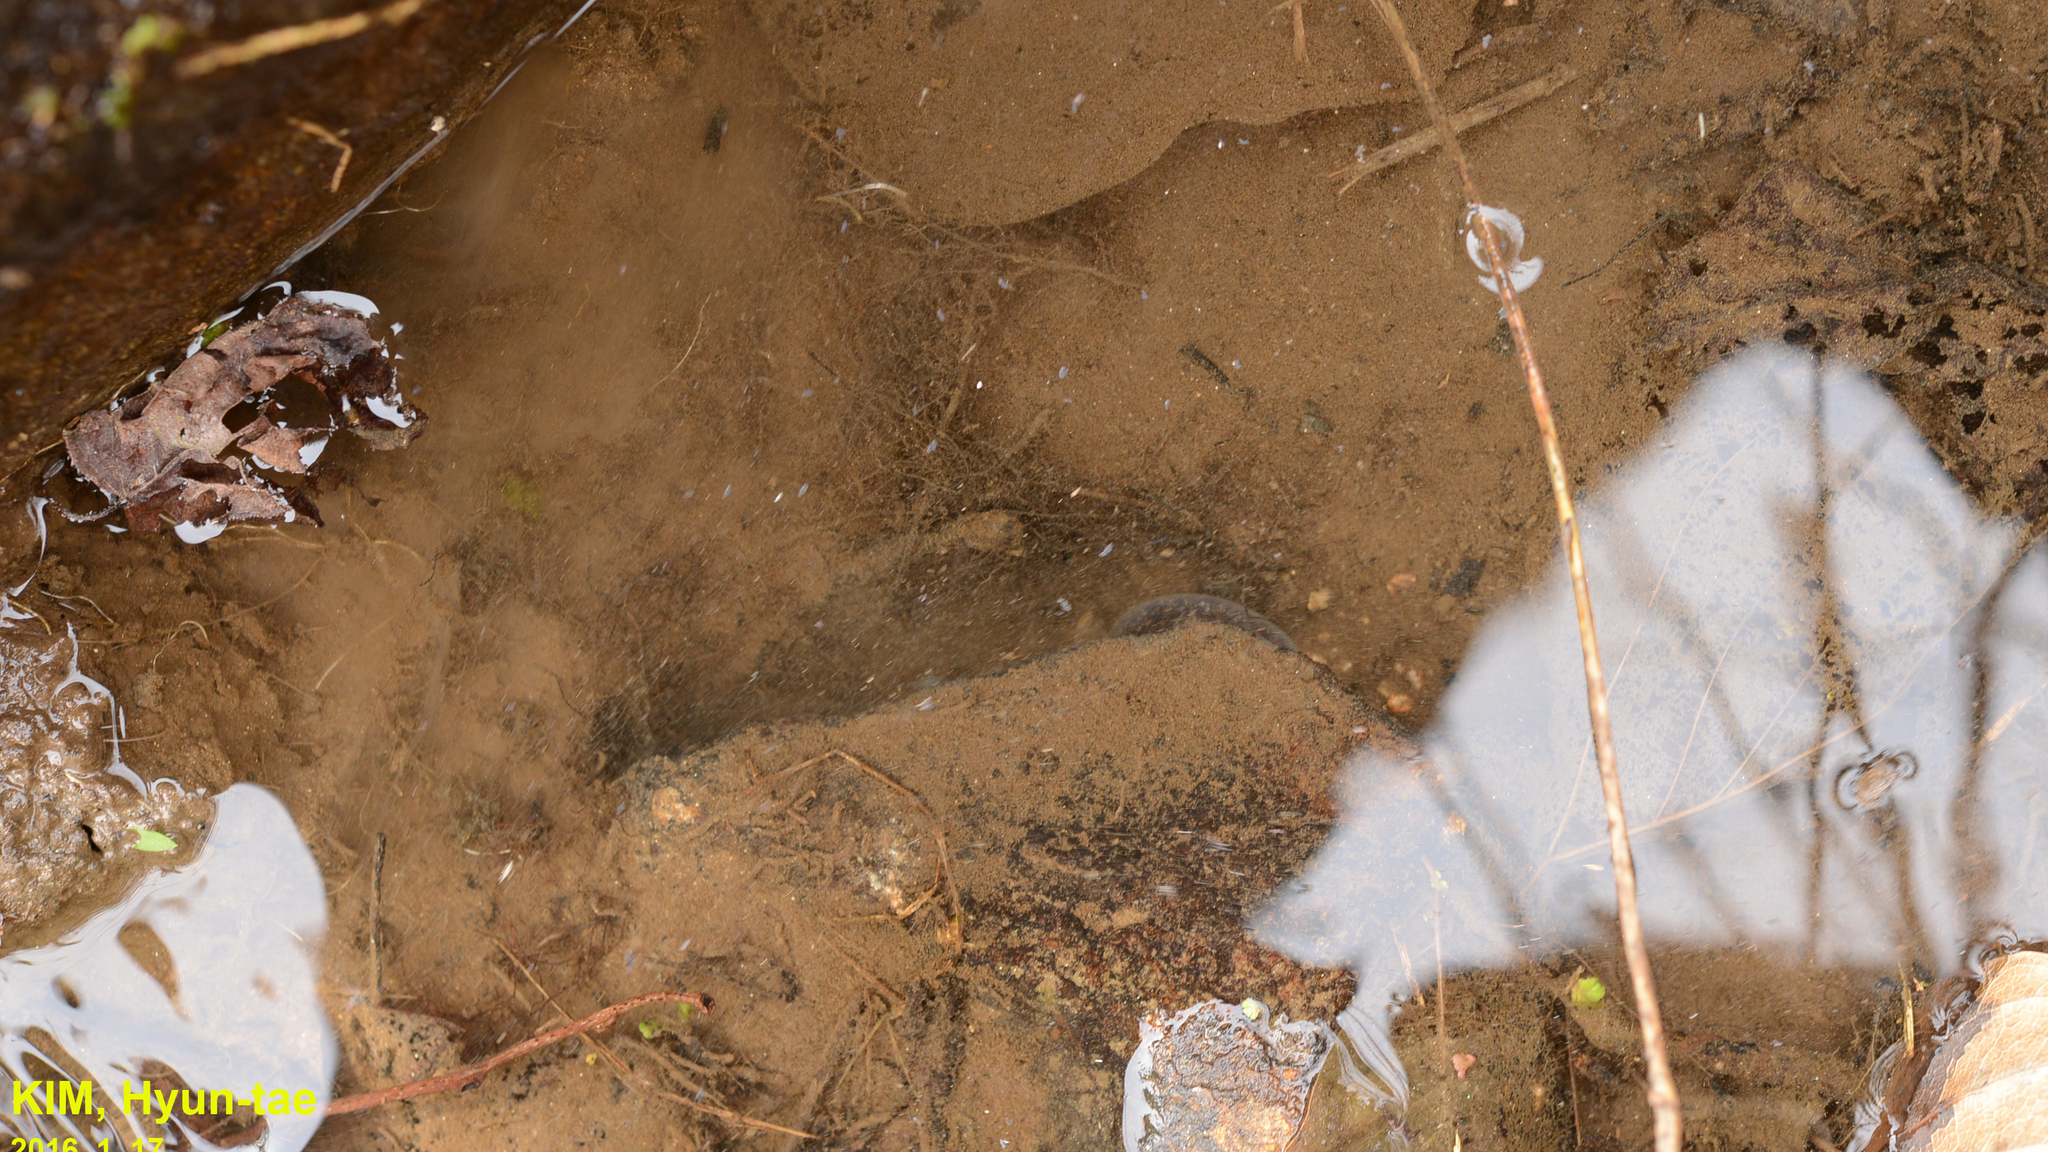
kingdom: Animalia
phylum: Chordata
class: Amphibia
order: Caudata
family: Hynobiidae
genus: Hynobius
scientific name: Hynobius leechii
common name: Gensan salamander
